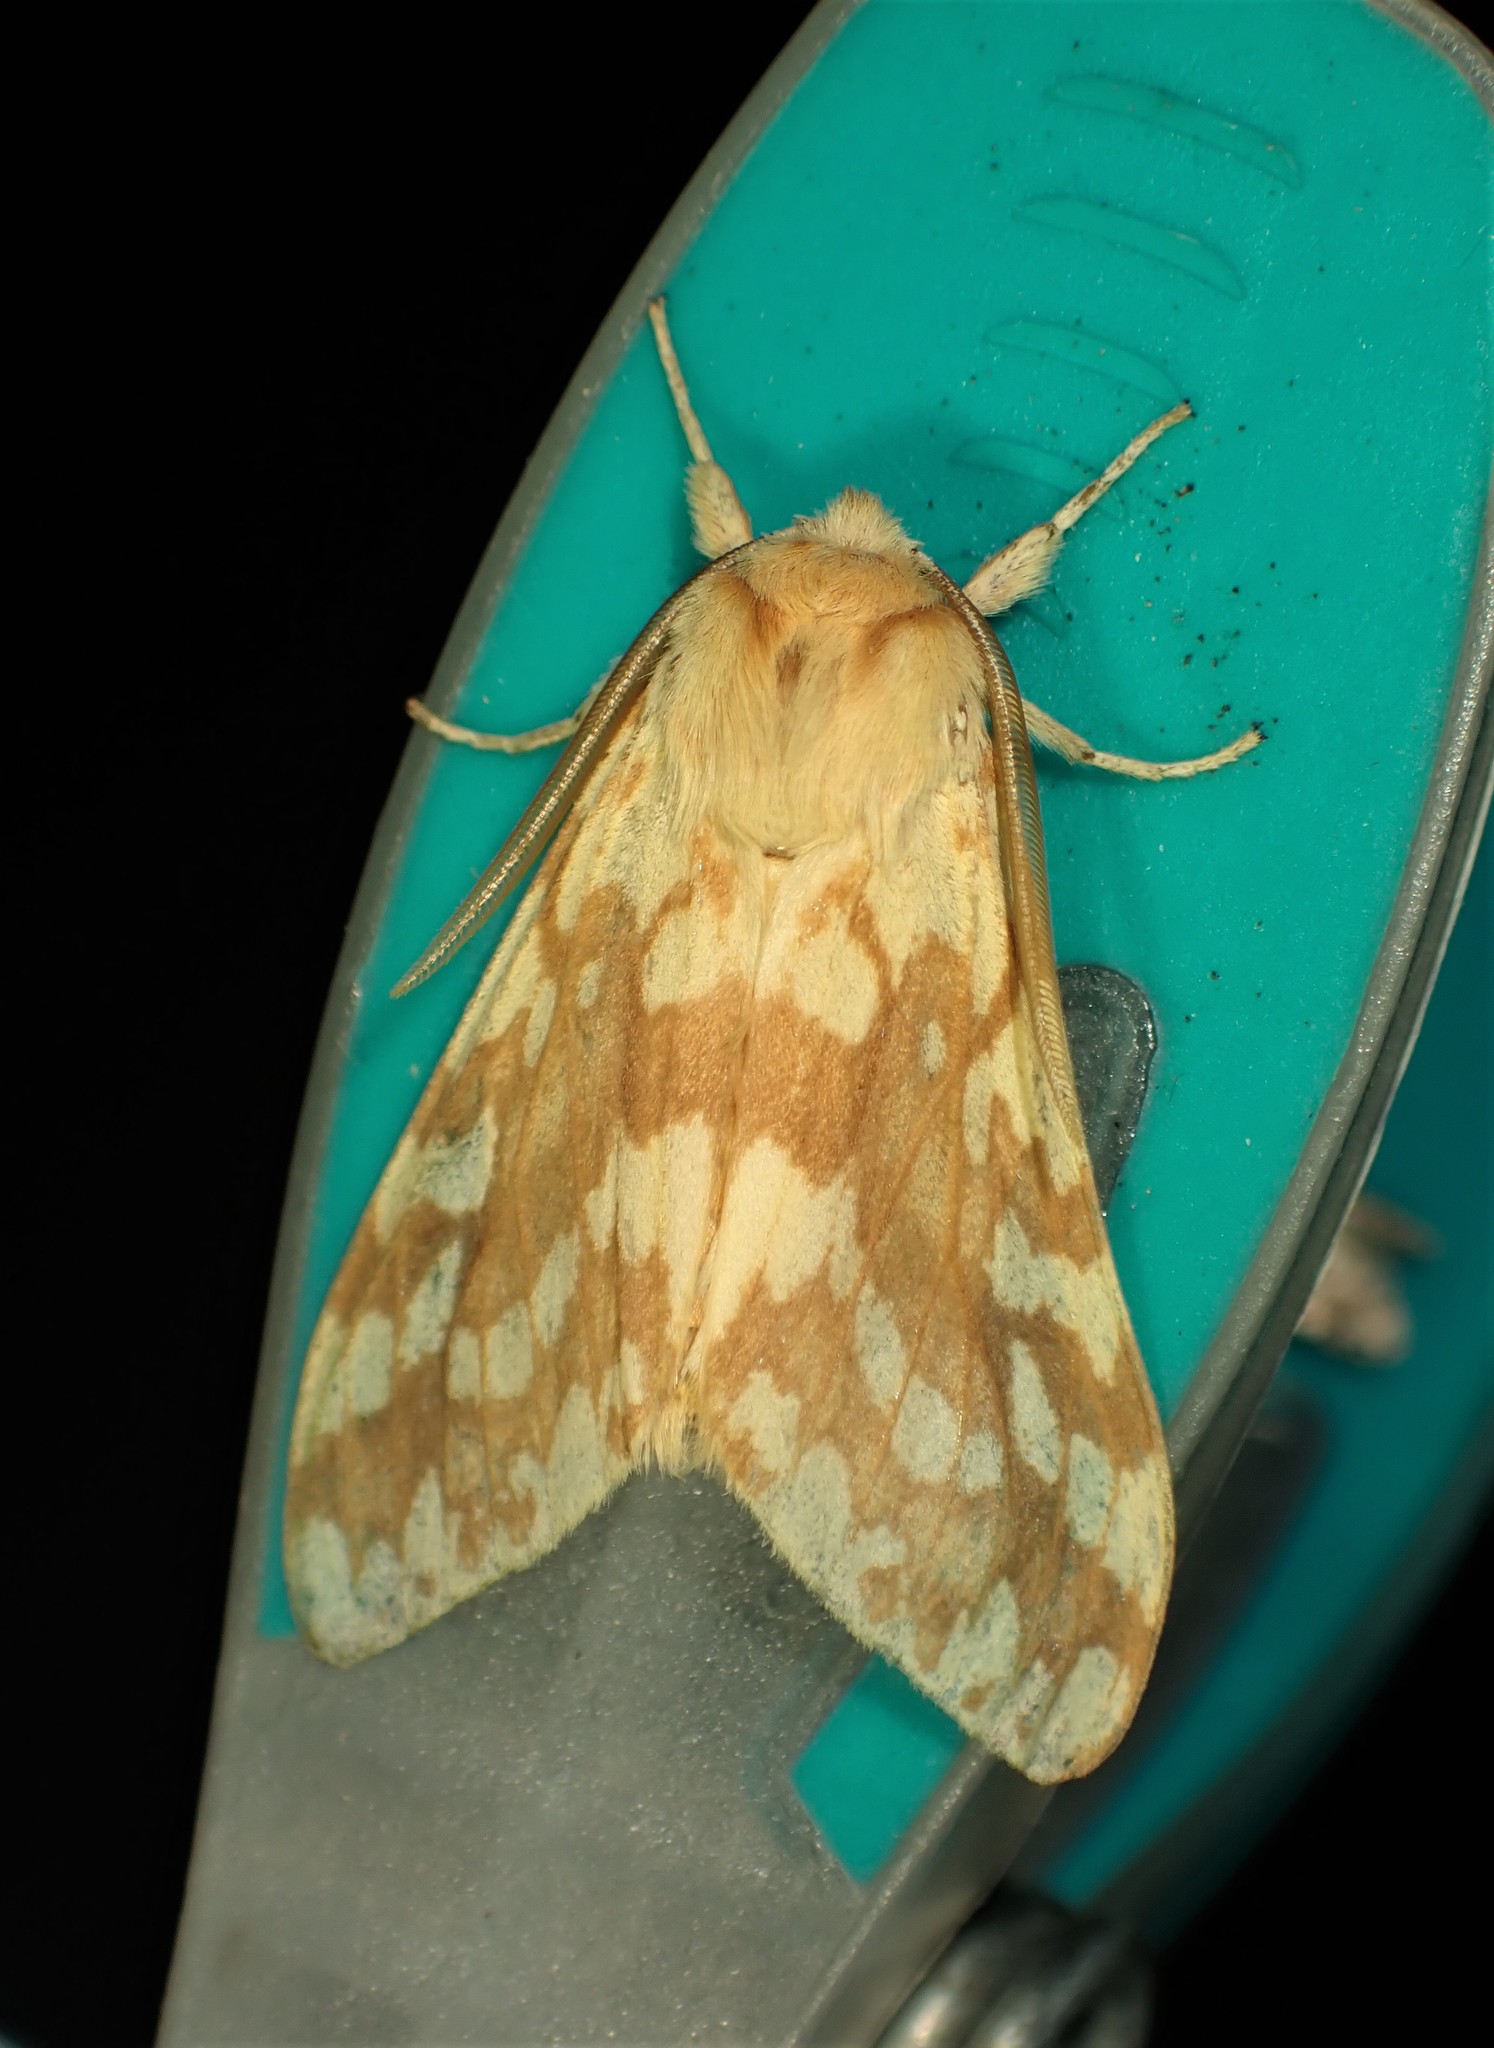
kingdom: Animalia
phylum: Arthropoda
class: Insecta
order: Lepidoptera
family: Erebidae
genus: Lophocampa
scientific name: Lophocampa maculata
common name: Spotted tussock moth
